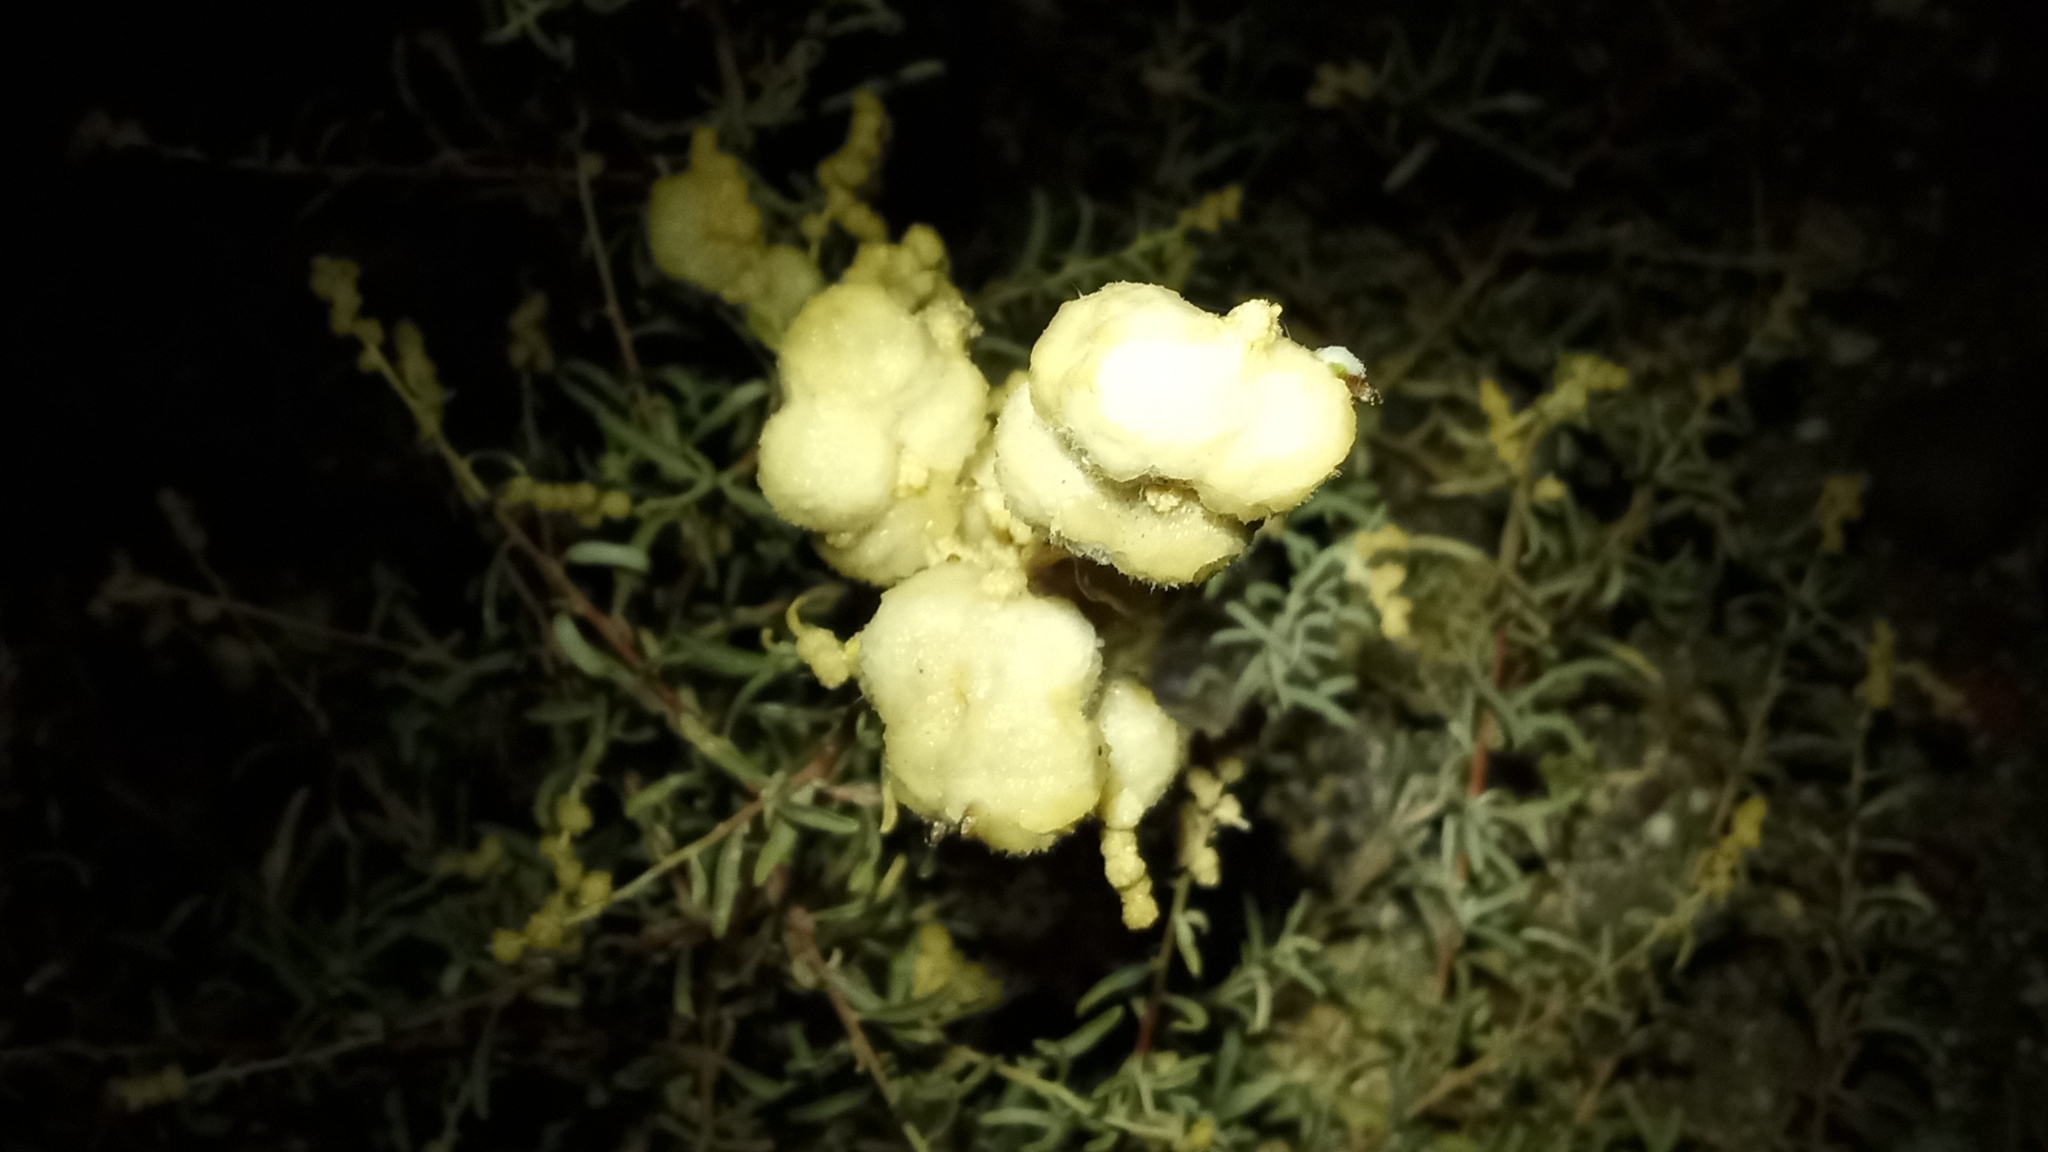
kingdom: Animalia
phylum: Arthropoda
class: Insecta
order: Diptera
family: Cecidomyiidae
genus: Asphondylia
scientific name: Asphondylia neomexicana
